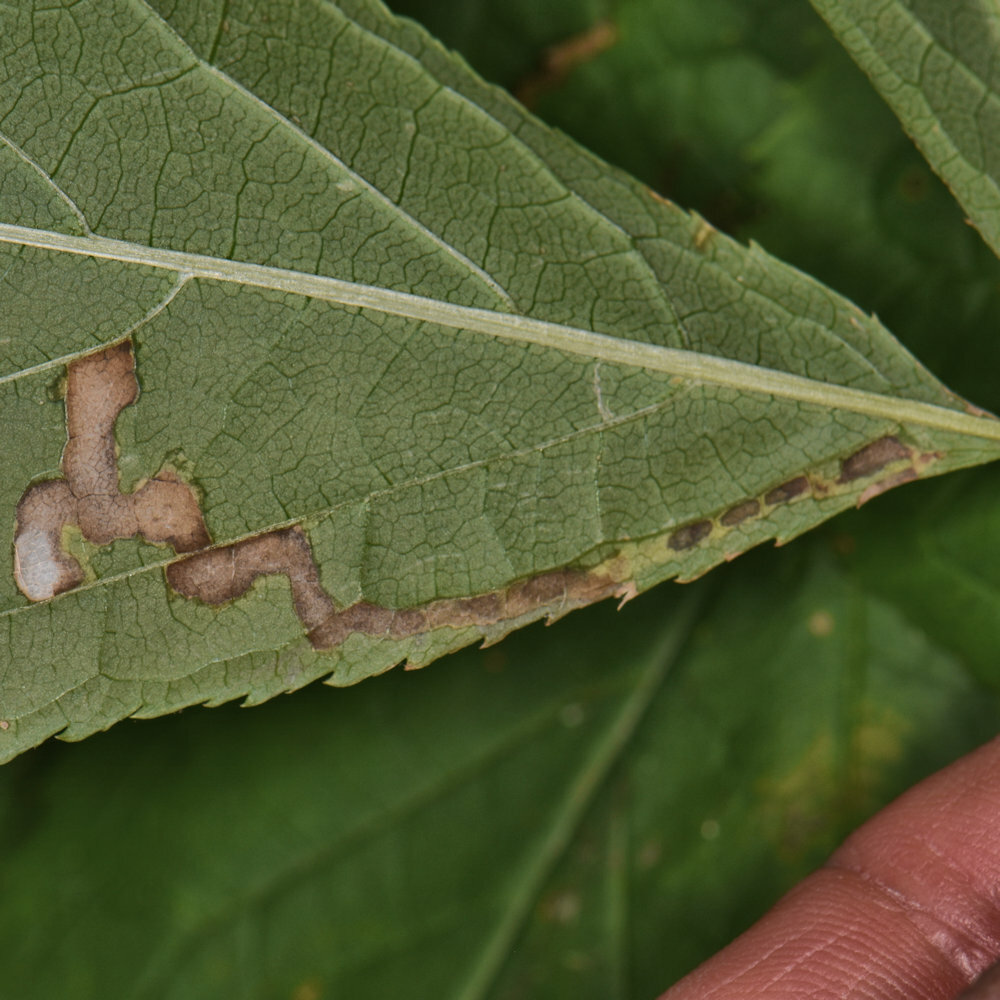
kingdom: Animalia
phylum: Arthropoda
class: Insecta
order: Diptera
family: Agromyzidae
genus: Phytomyza
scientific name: Phytomyza aralivora
